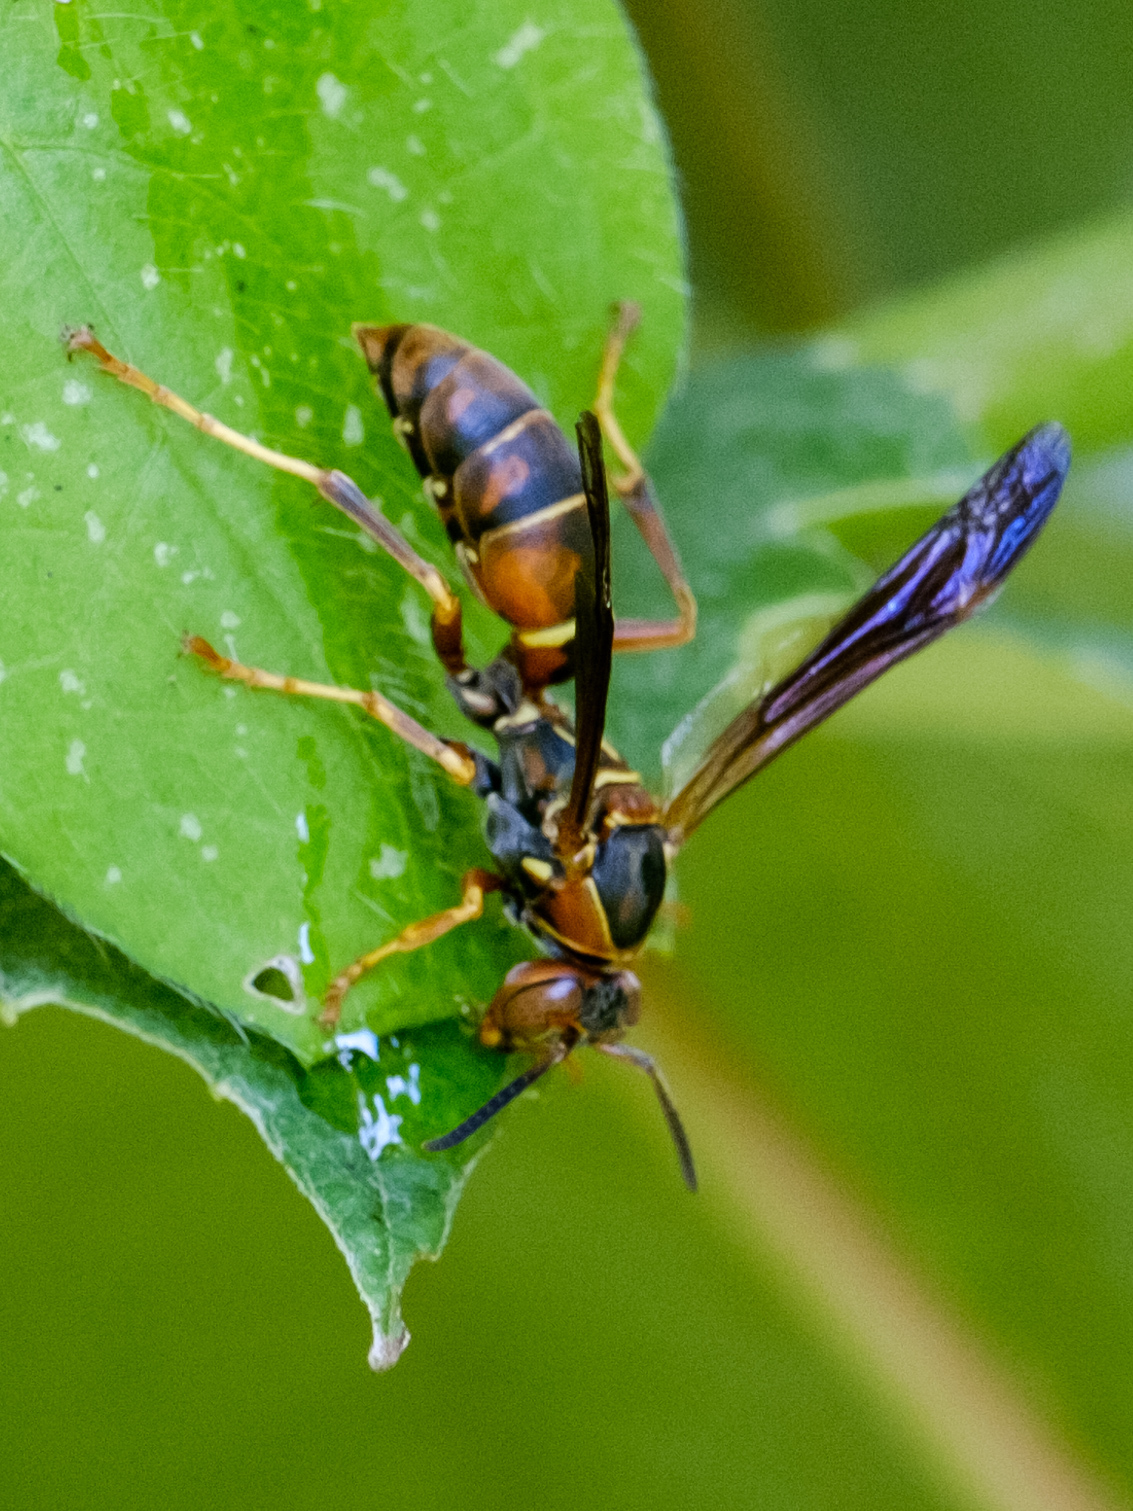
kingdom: Animalia
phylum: Arthropoda
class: Insecta
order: Hymenoptera
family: Eumenidae
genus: Polistes
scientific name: Polistes fuscatus
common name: Dark paper wasp
